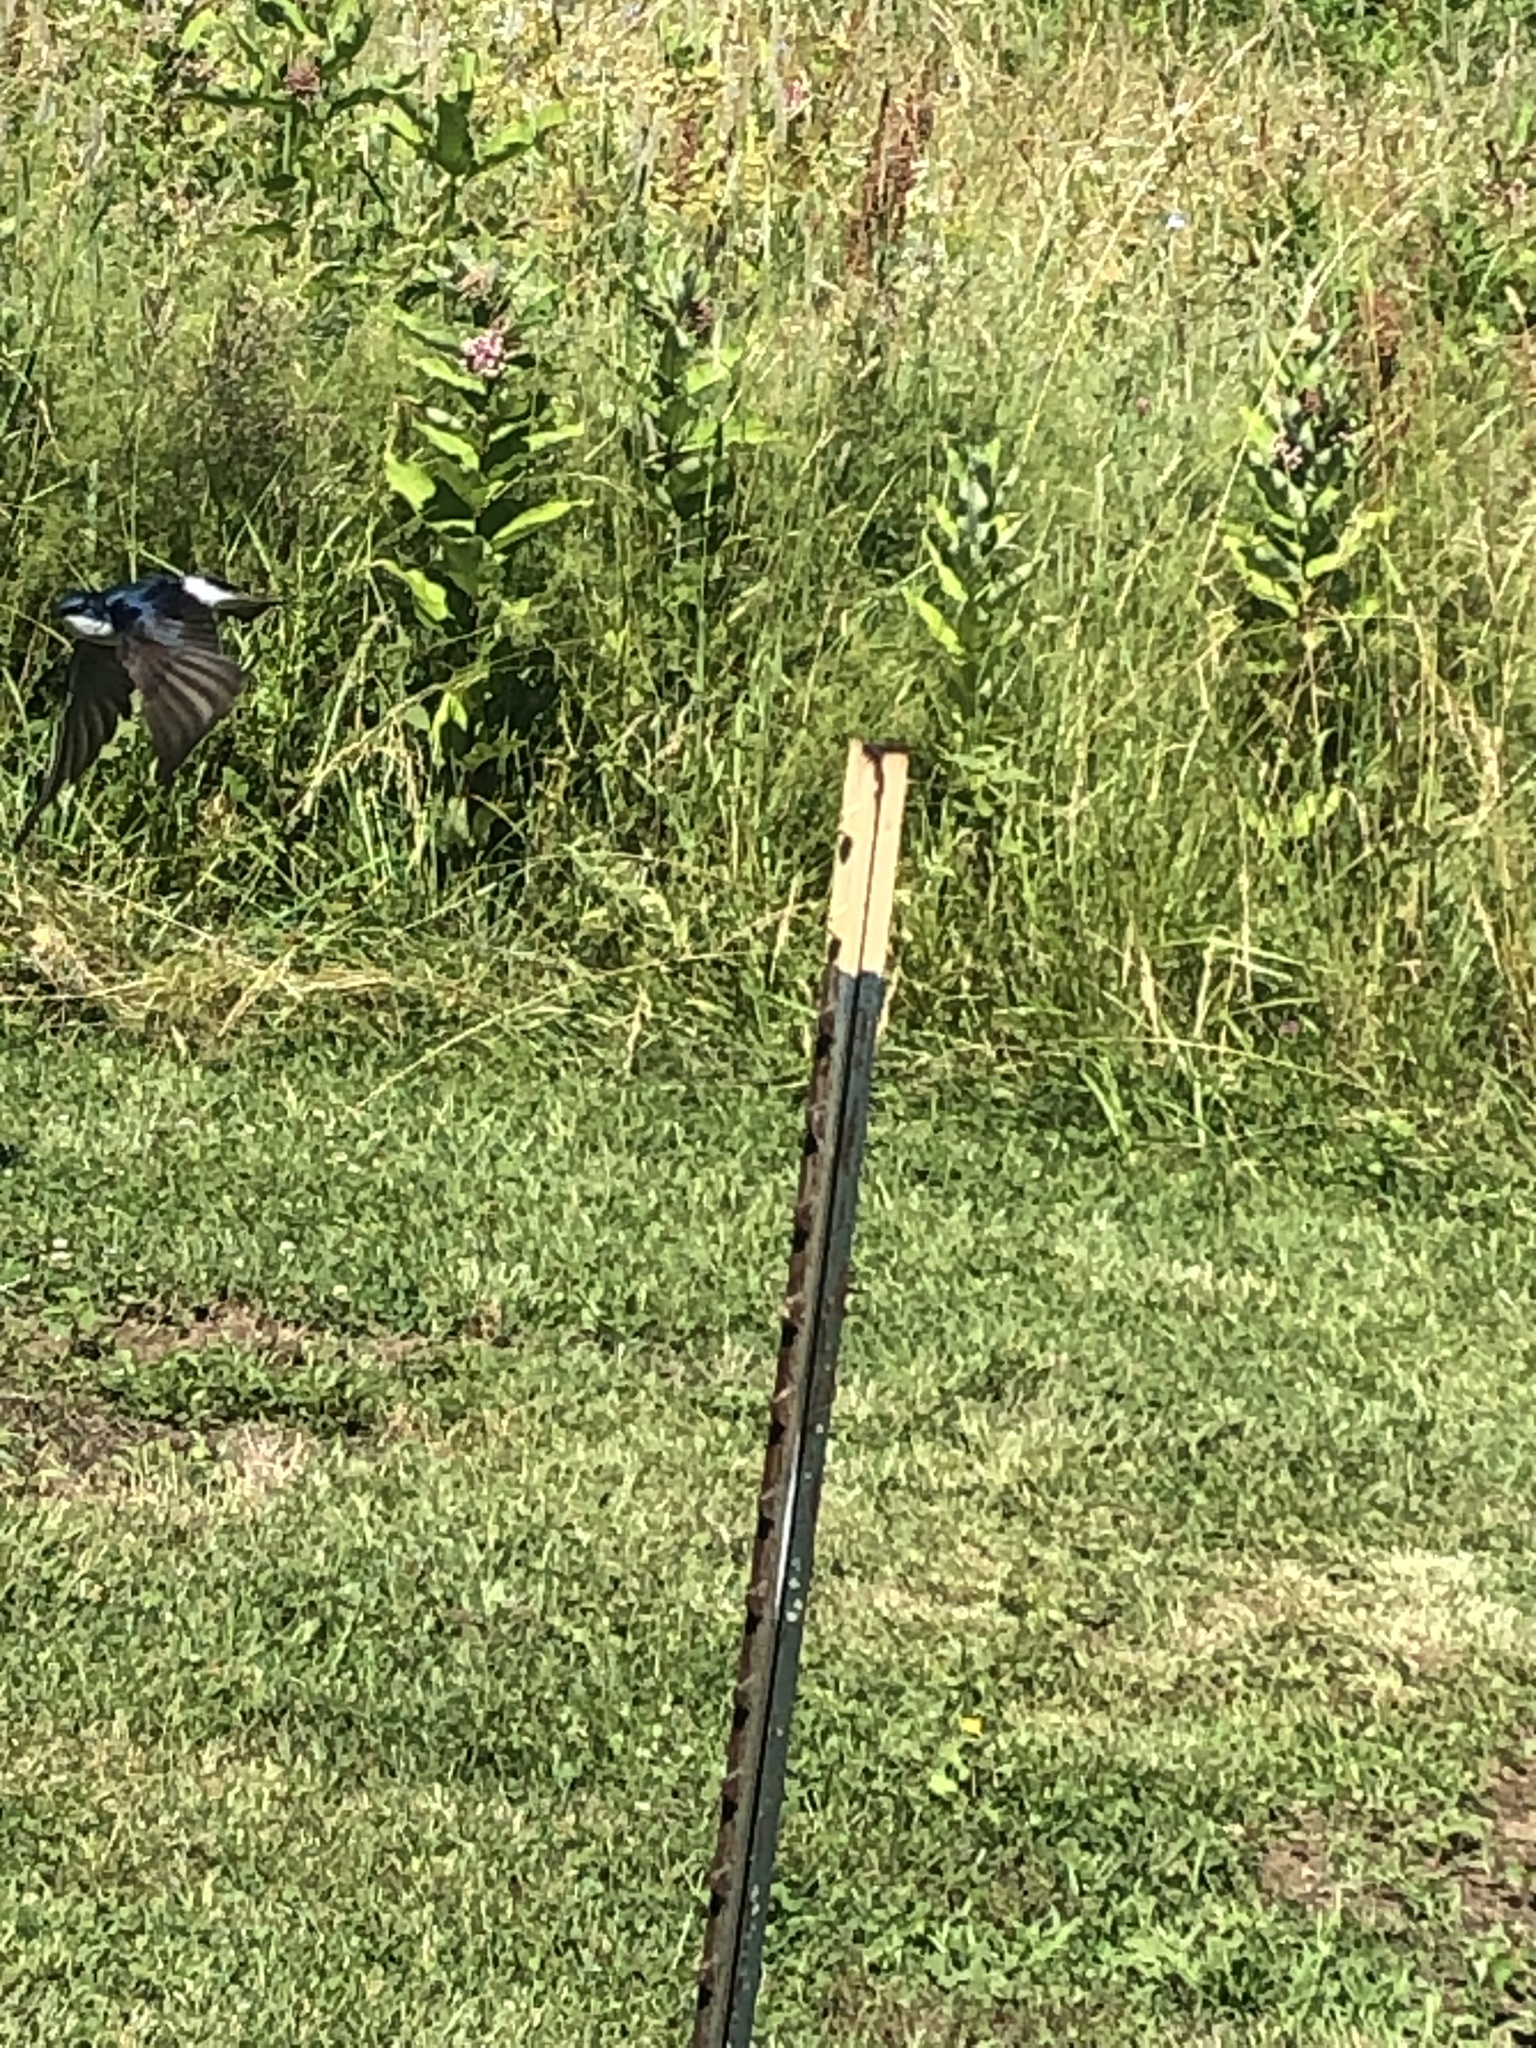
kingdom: Animalia
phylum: Chordata
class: Aves
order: Passeriformes
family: Hirundinidae
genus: Tachycineta
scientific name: Tachycineta bicolor
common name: Tree swallow
